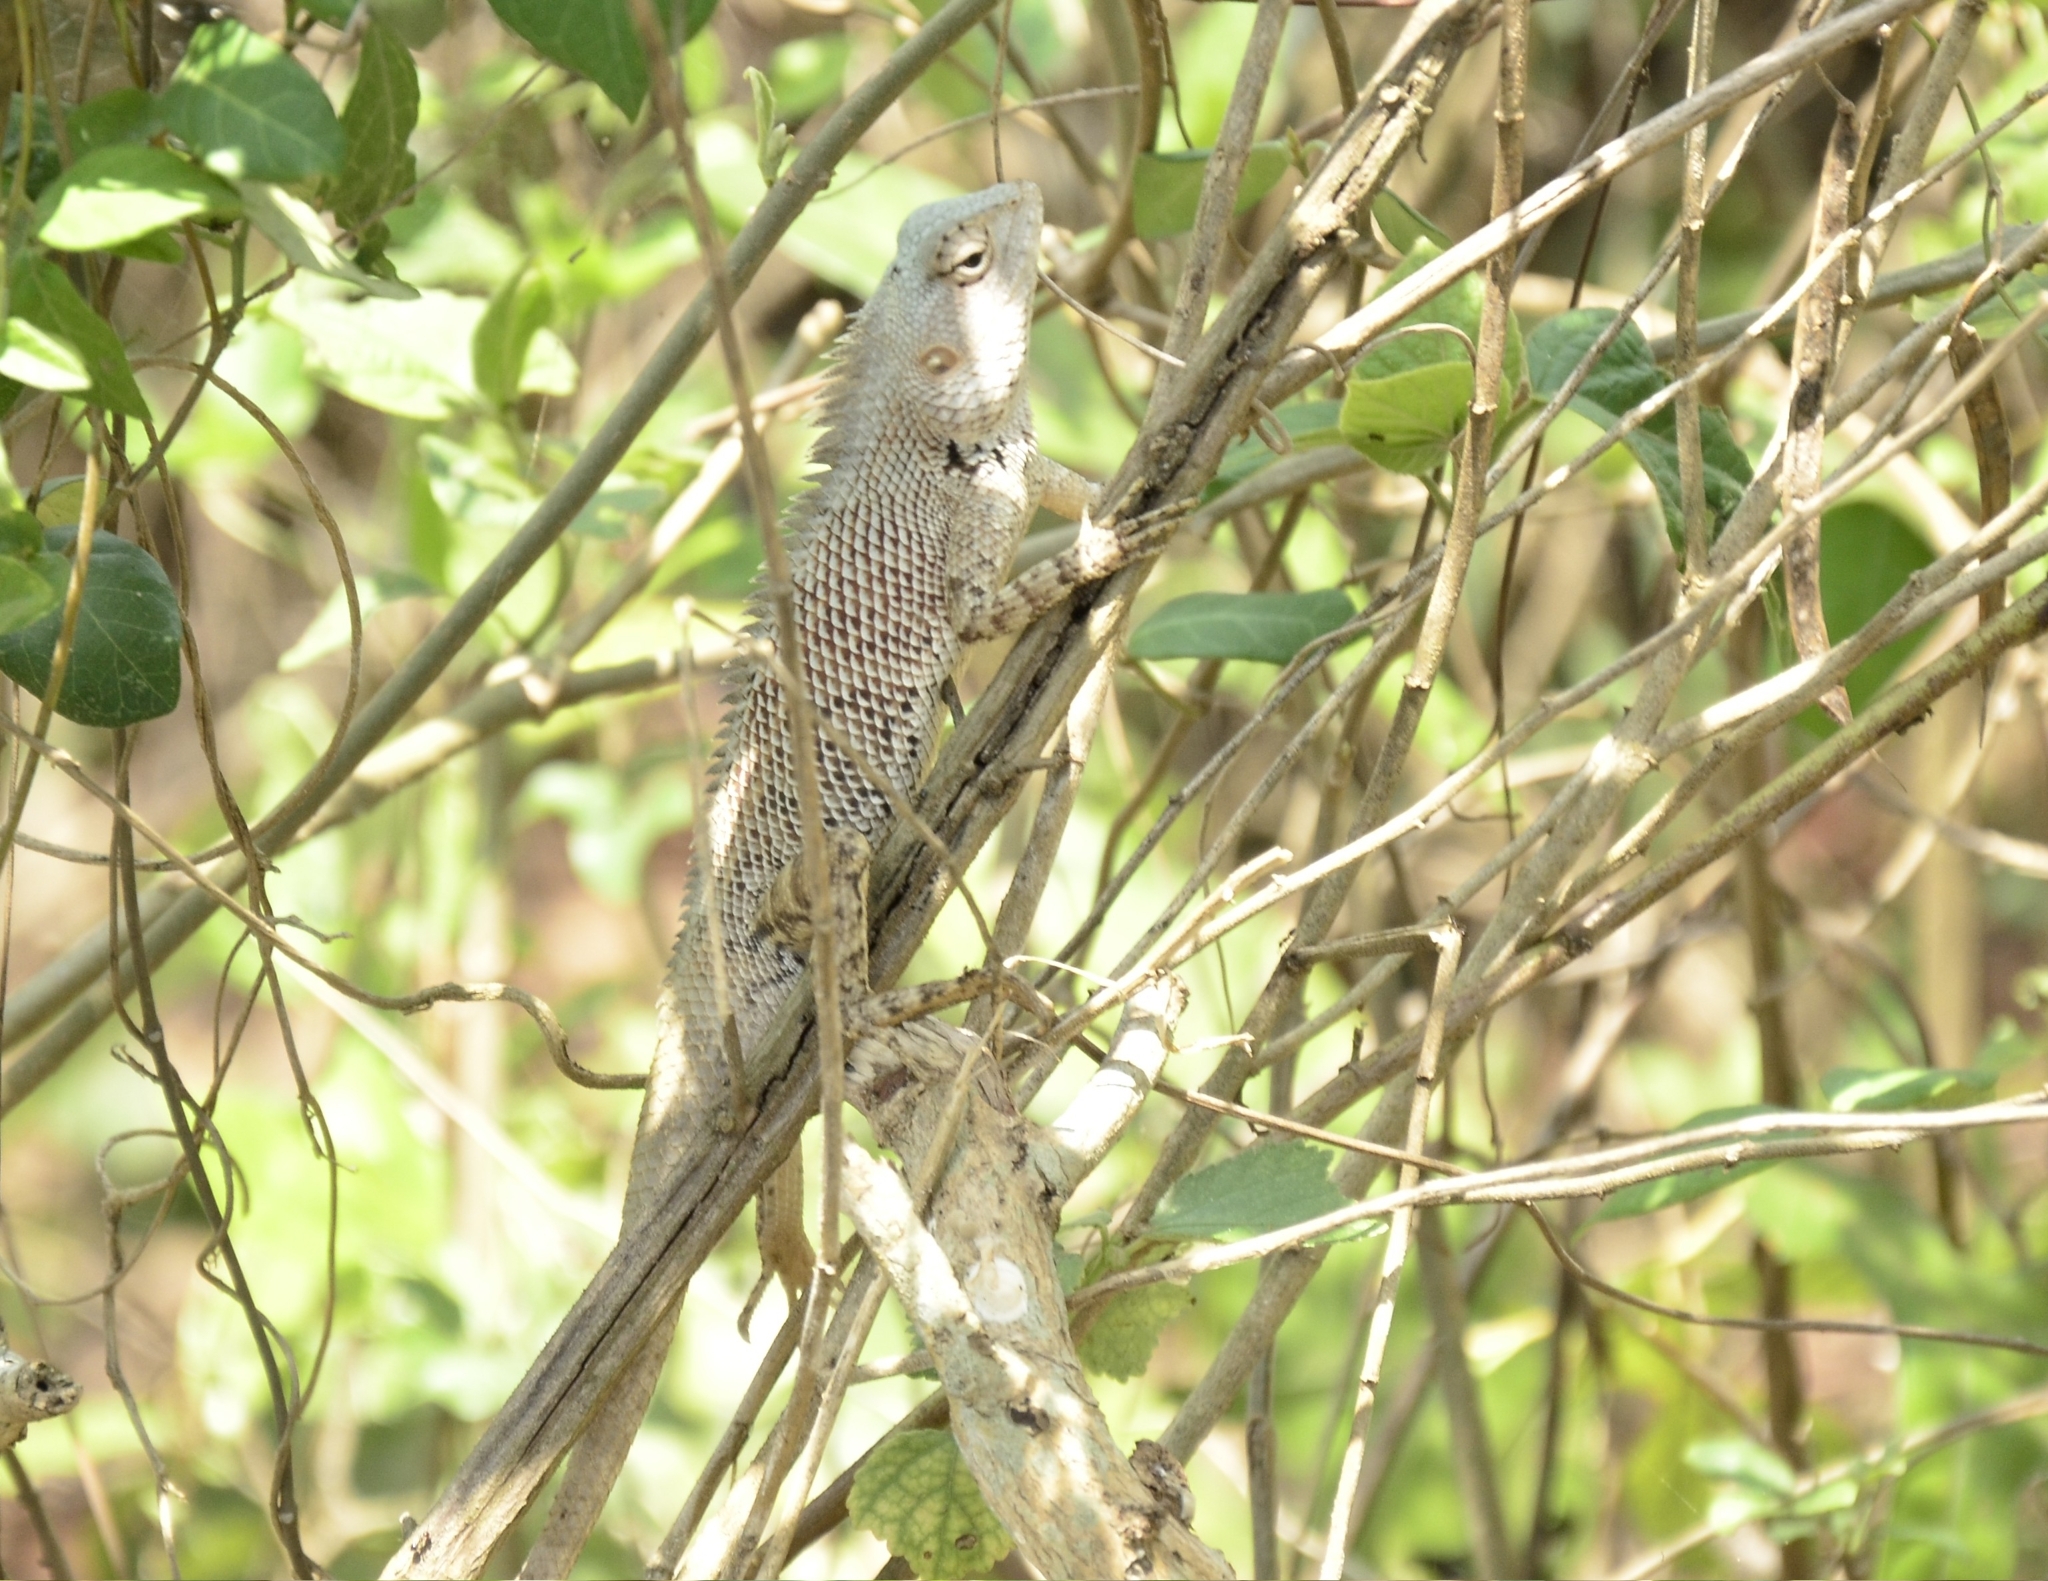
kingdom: Animalia
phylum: Chordata
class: Squamata
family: Agamidae
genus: Calotes
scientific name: Calotes versicolor
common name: Oriental garden lizard
